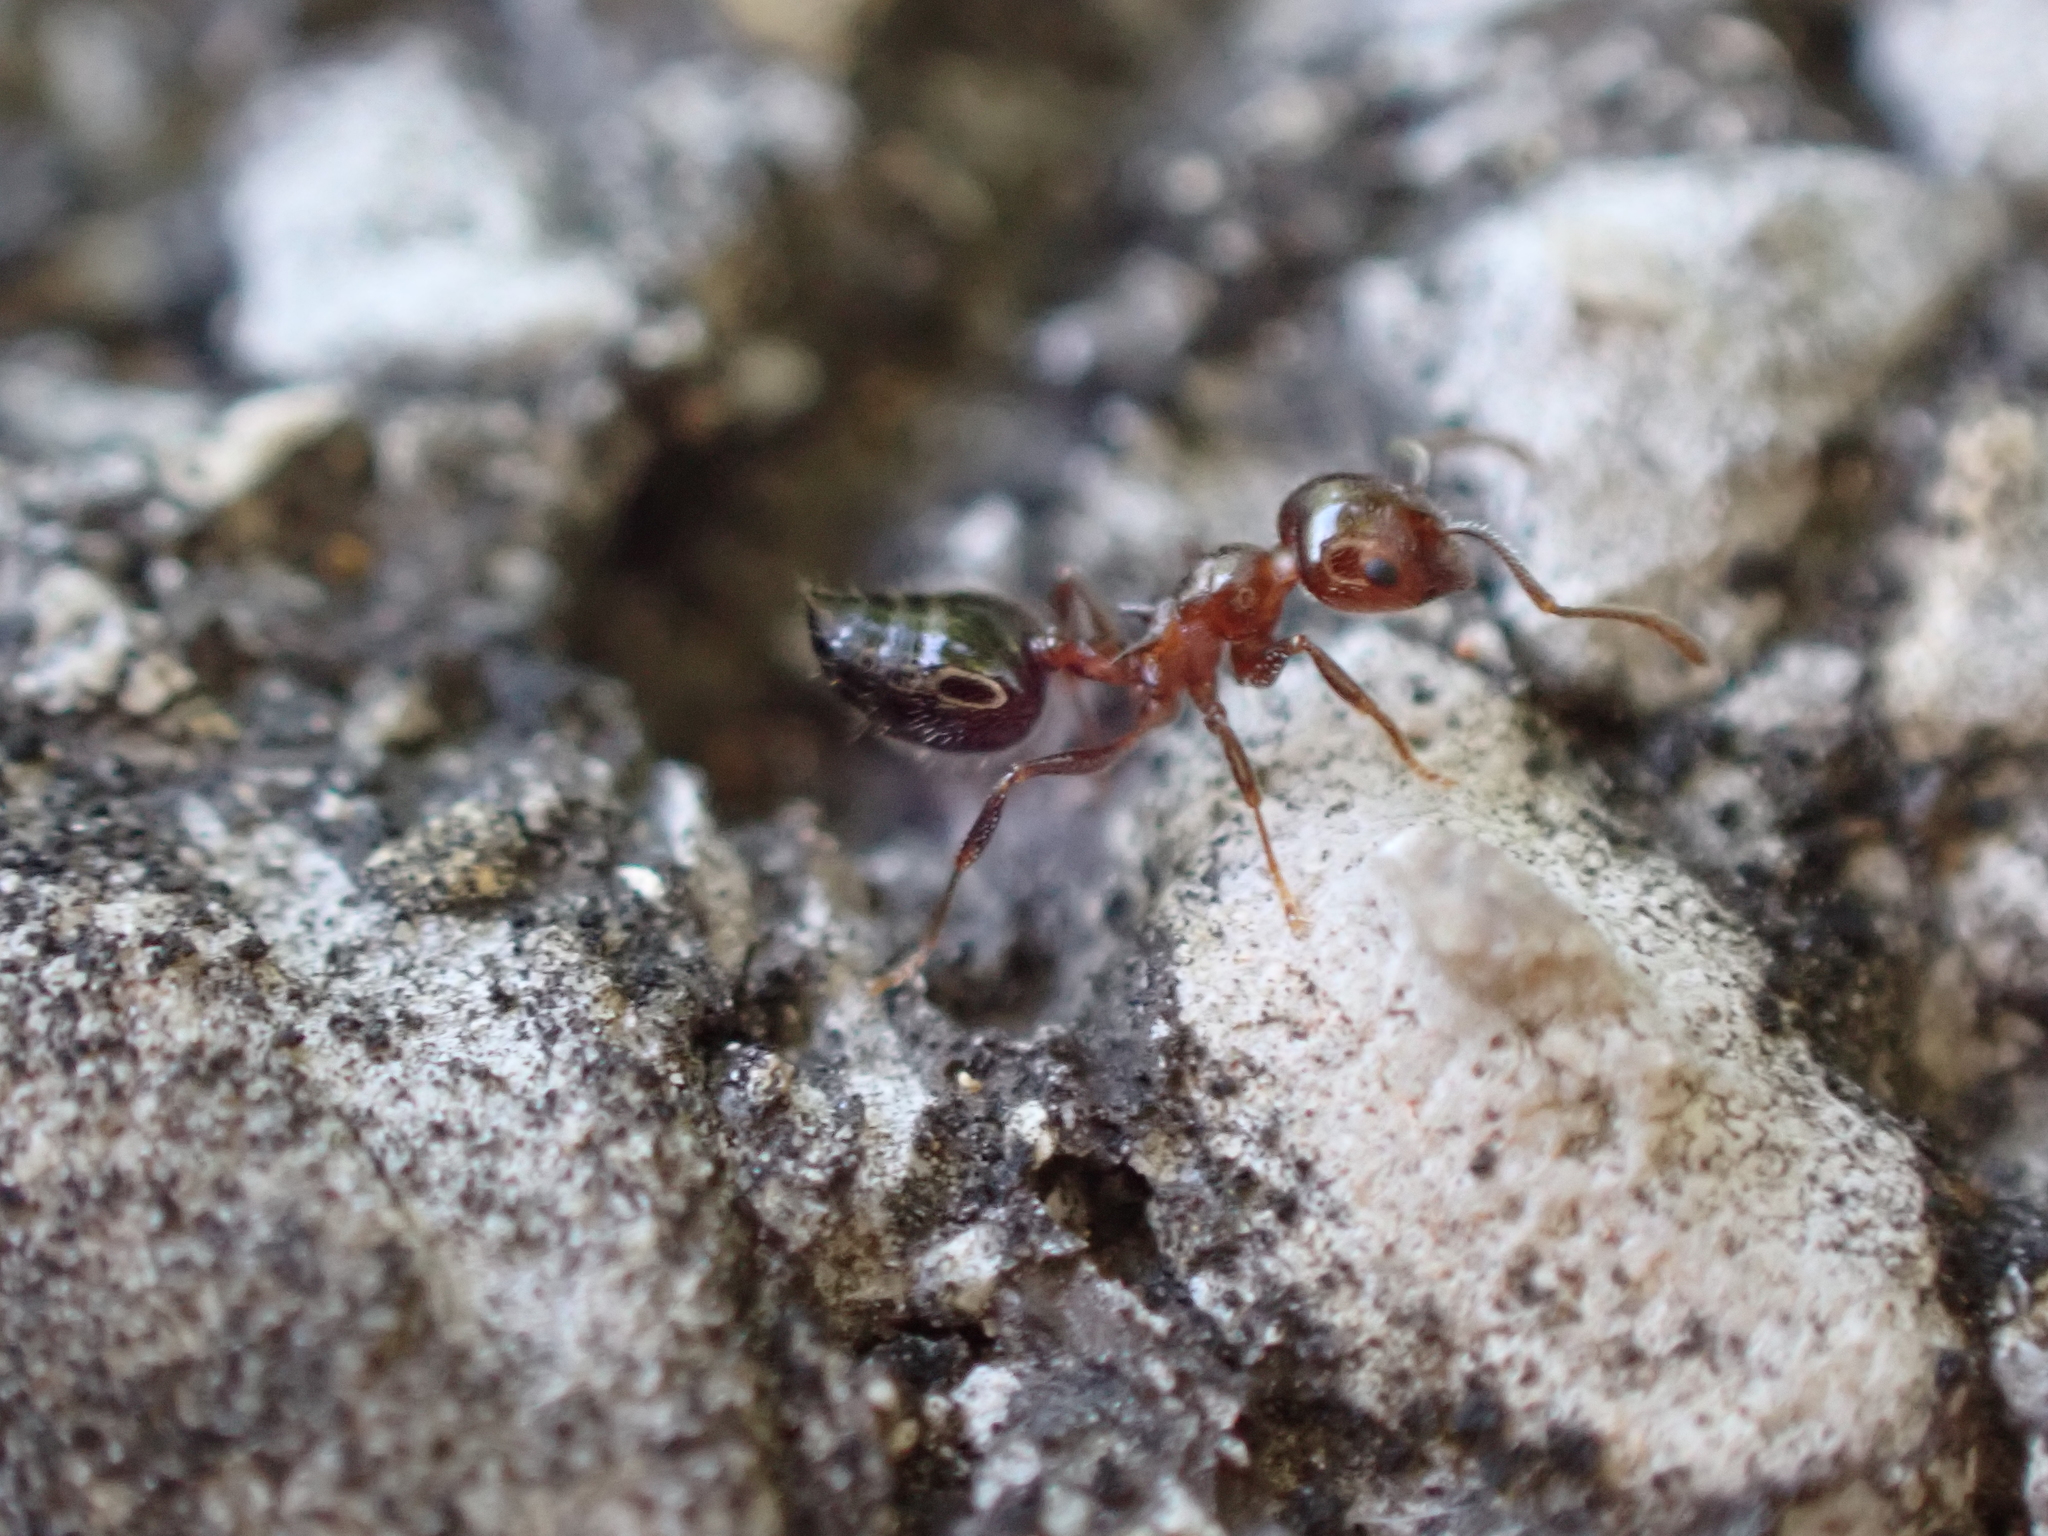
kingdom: Animalia
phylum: Arthropoda
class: Insecta
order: Hymenoptera
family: Formicidae
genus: Crematogaster
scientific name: Crematogaster pilosa
